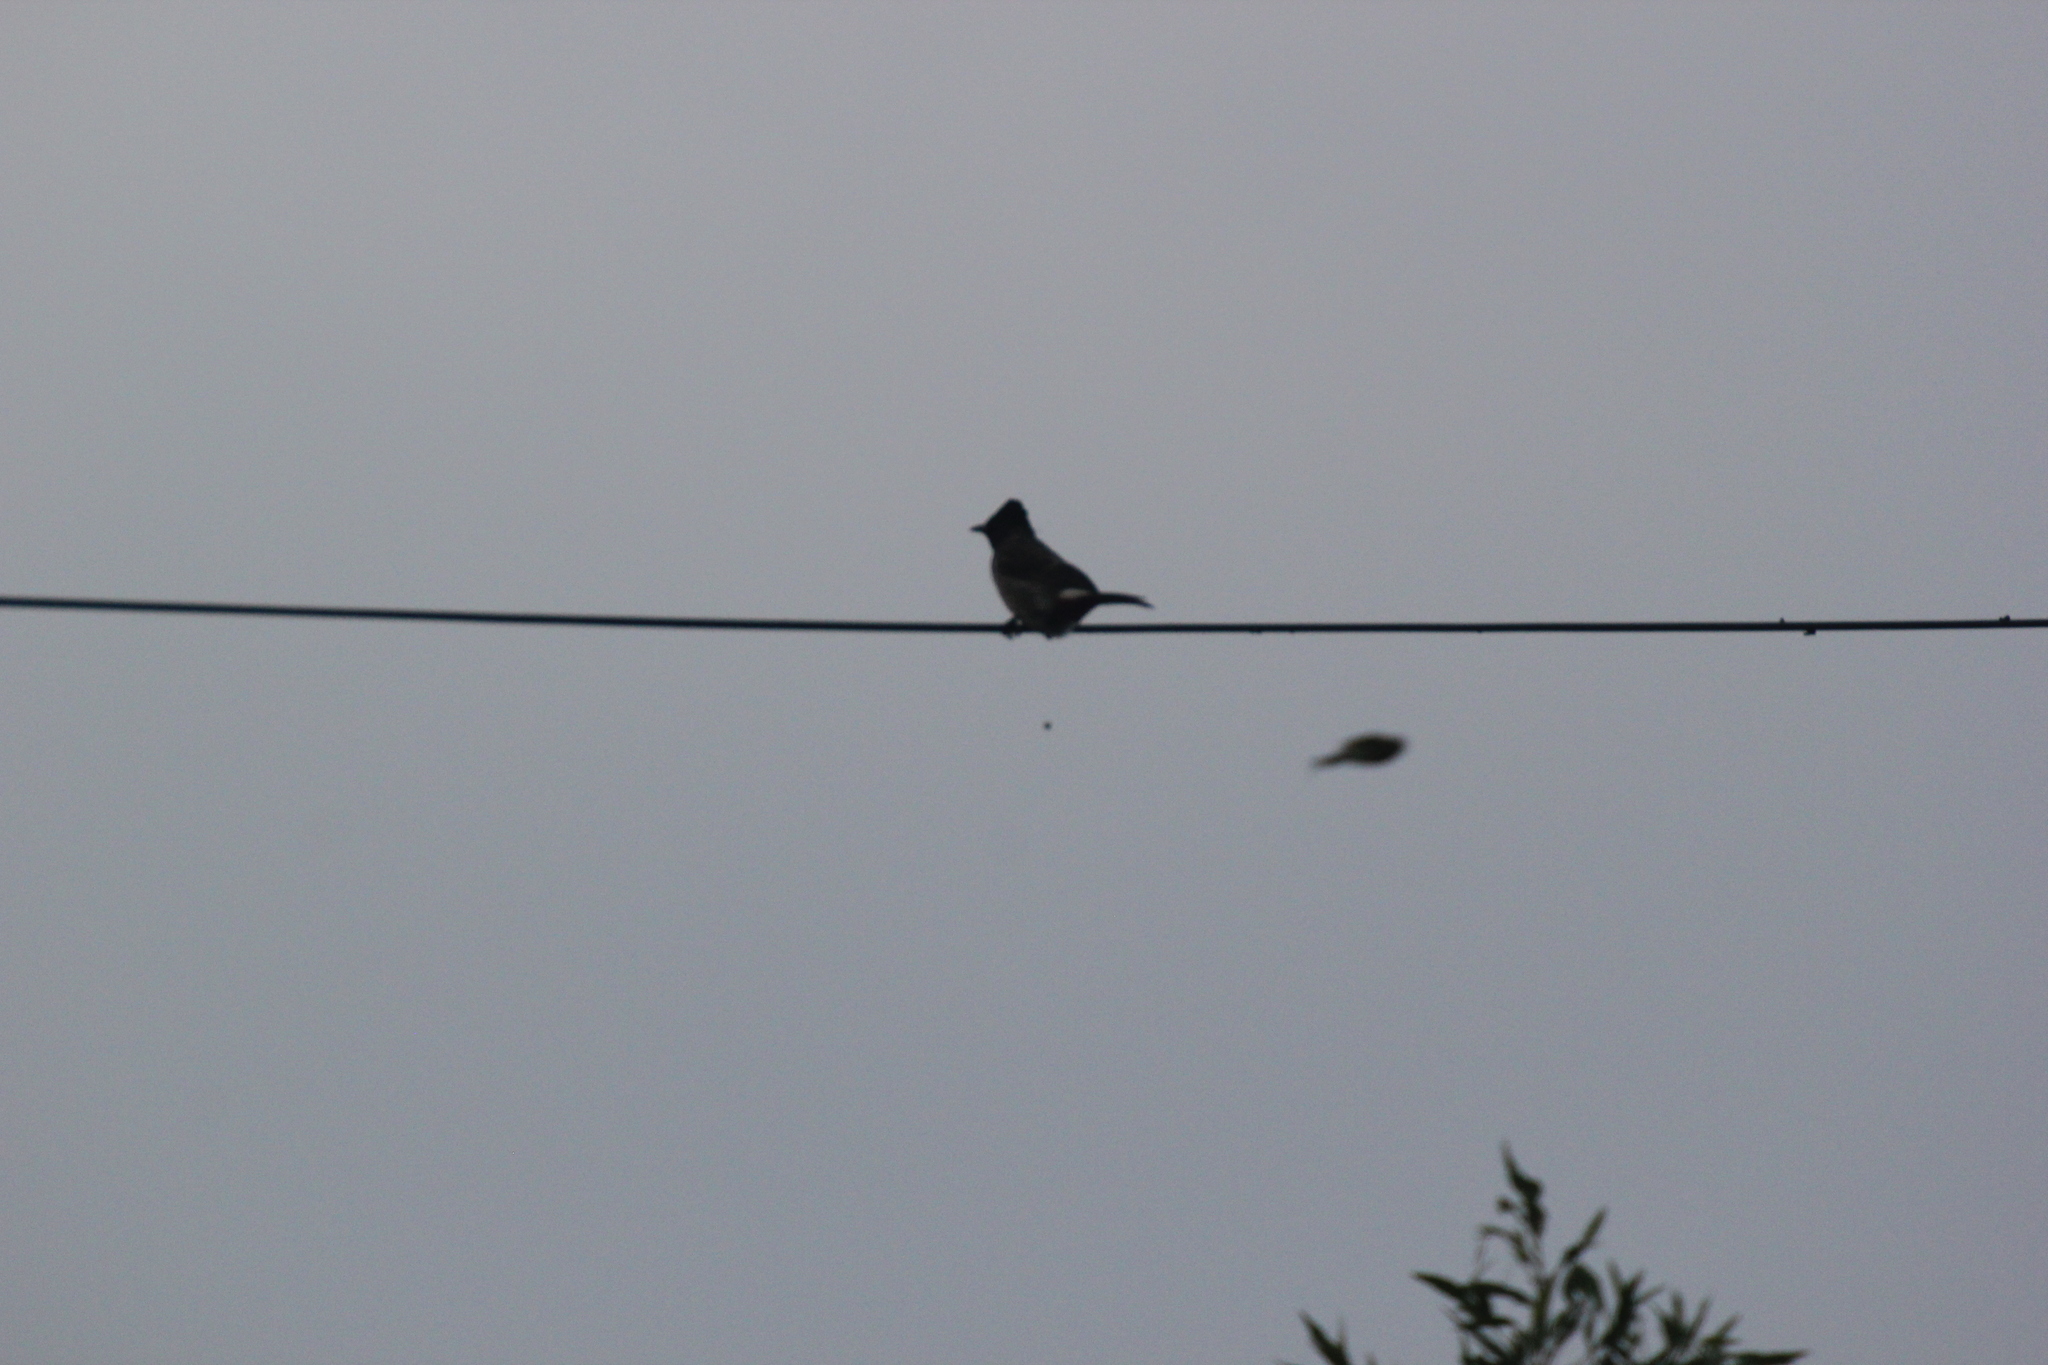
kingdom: Animalia
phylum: Chordata
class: Aves
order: Passeriformes
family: Pycnonotidae
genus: Pycnonotus
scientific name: Pycnonotus cafer
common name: Red-vented bulbul
